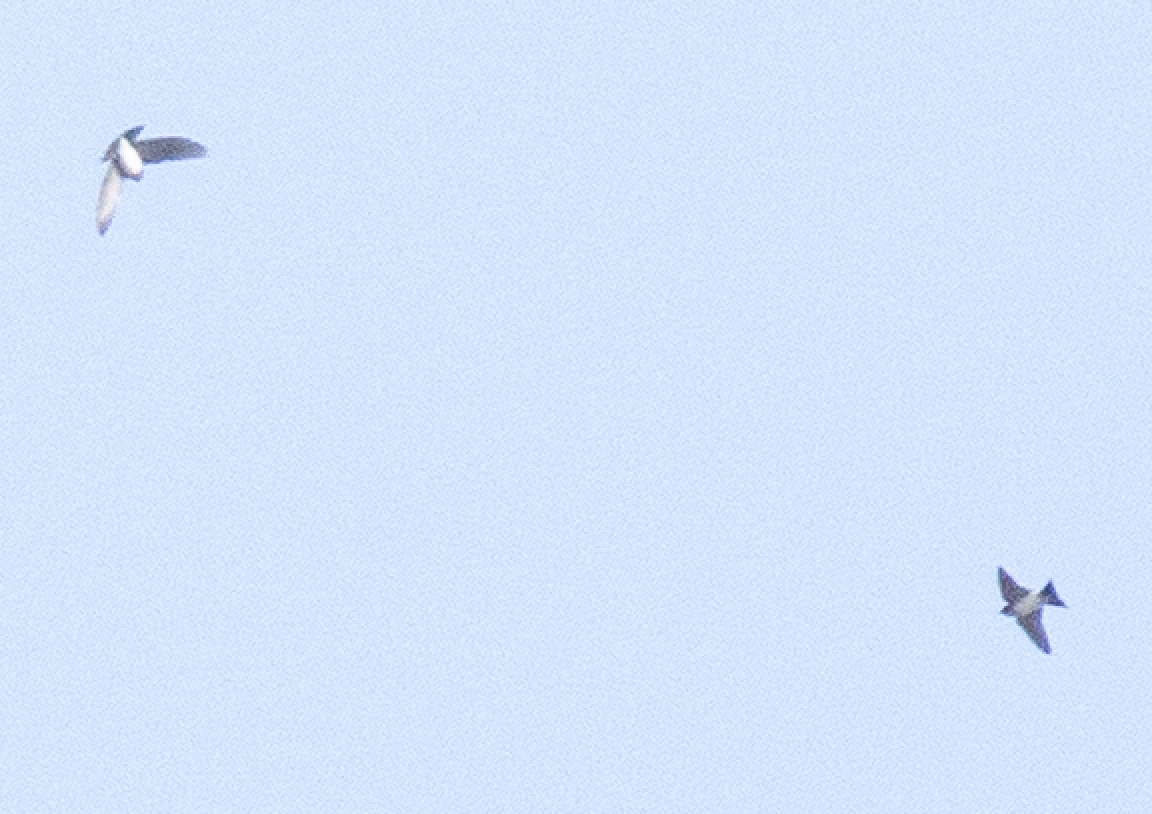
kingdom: Animalia
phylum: Chordata
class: Aves
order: Passeriformes
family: Hirundinidae
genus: Delichon
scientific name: Delichon urbicum
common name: Common house martin
